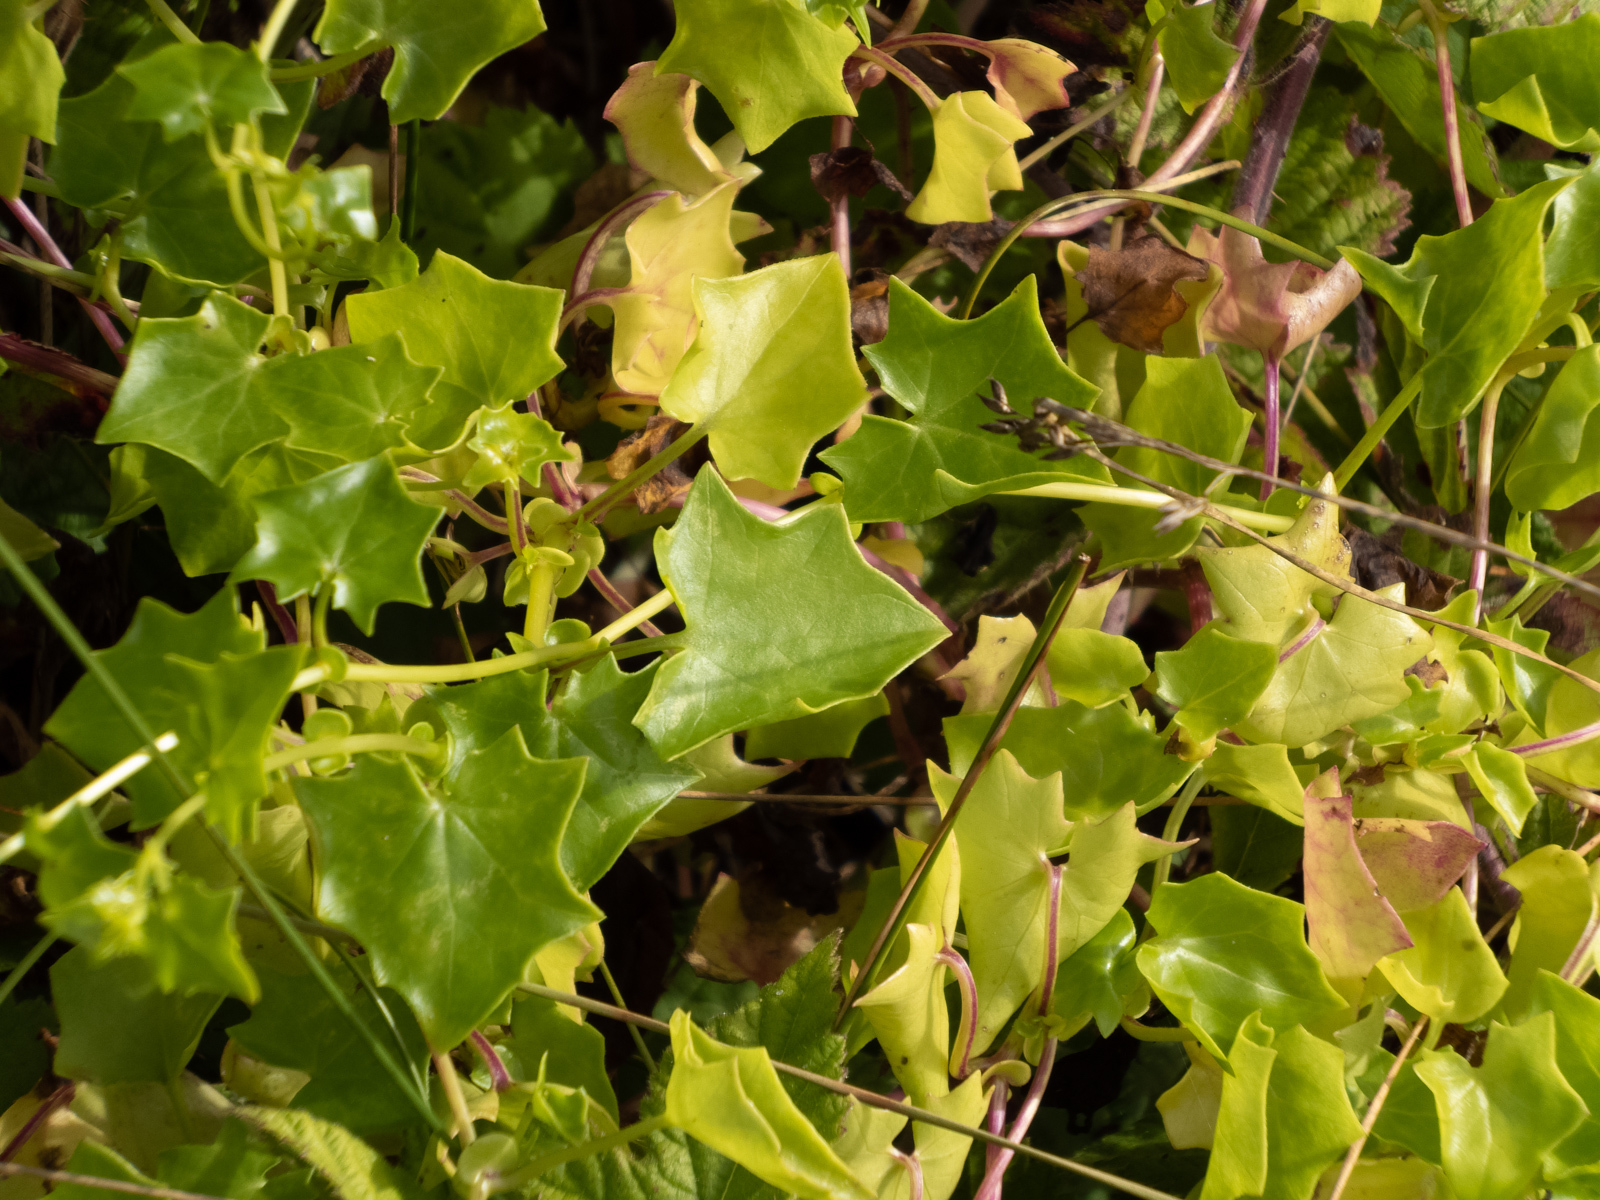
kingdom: Plantae
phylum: Tracheophyta
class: Magnoliopsida
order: Asterales
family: Asteraceae
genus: Delairea
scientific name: Delairea odorata
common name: Cape-ivy
